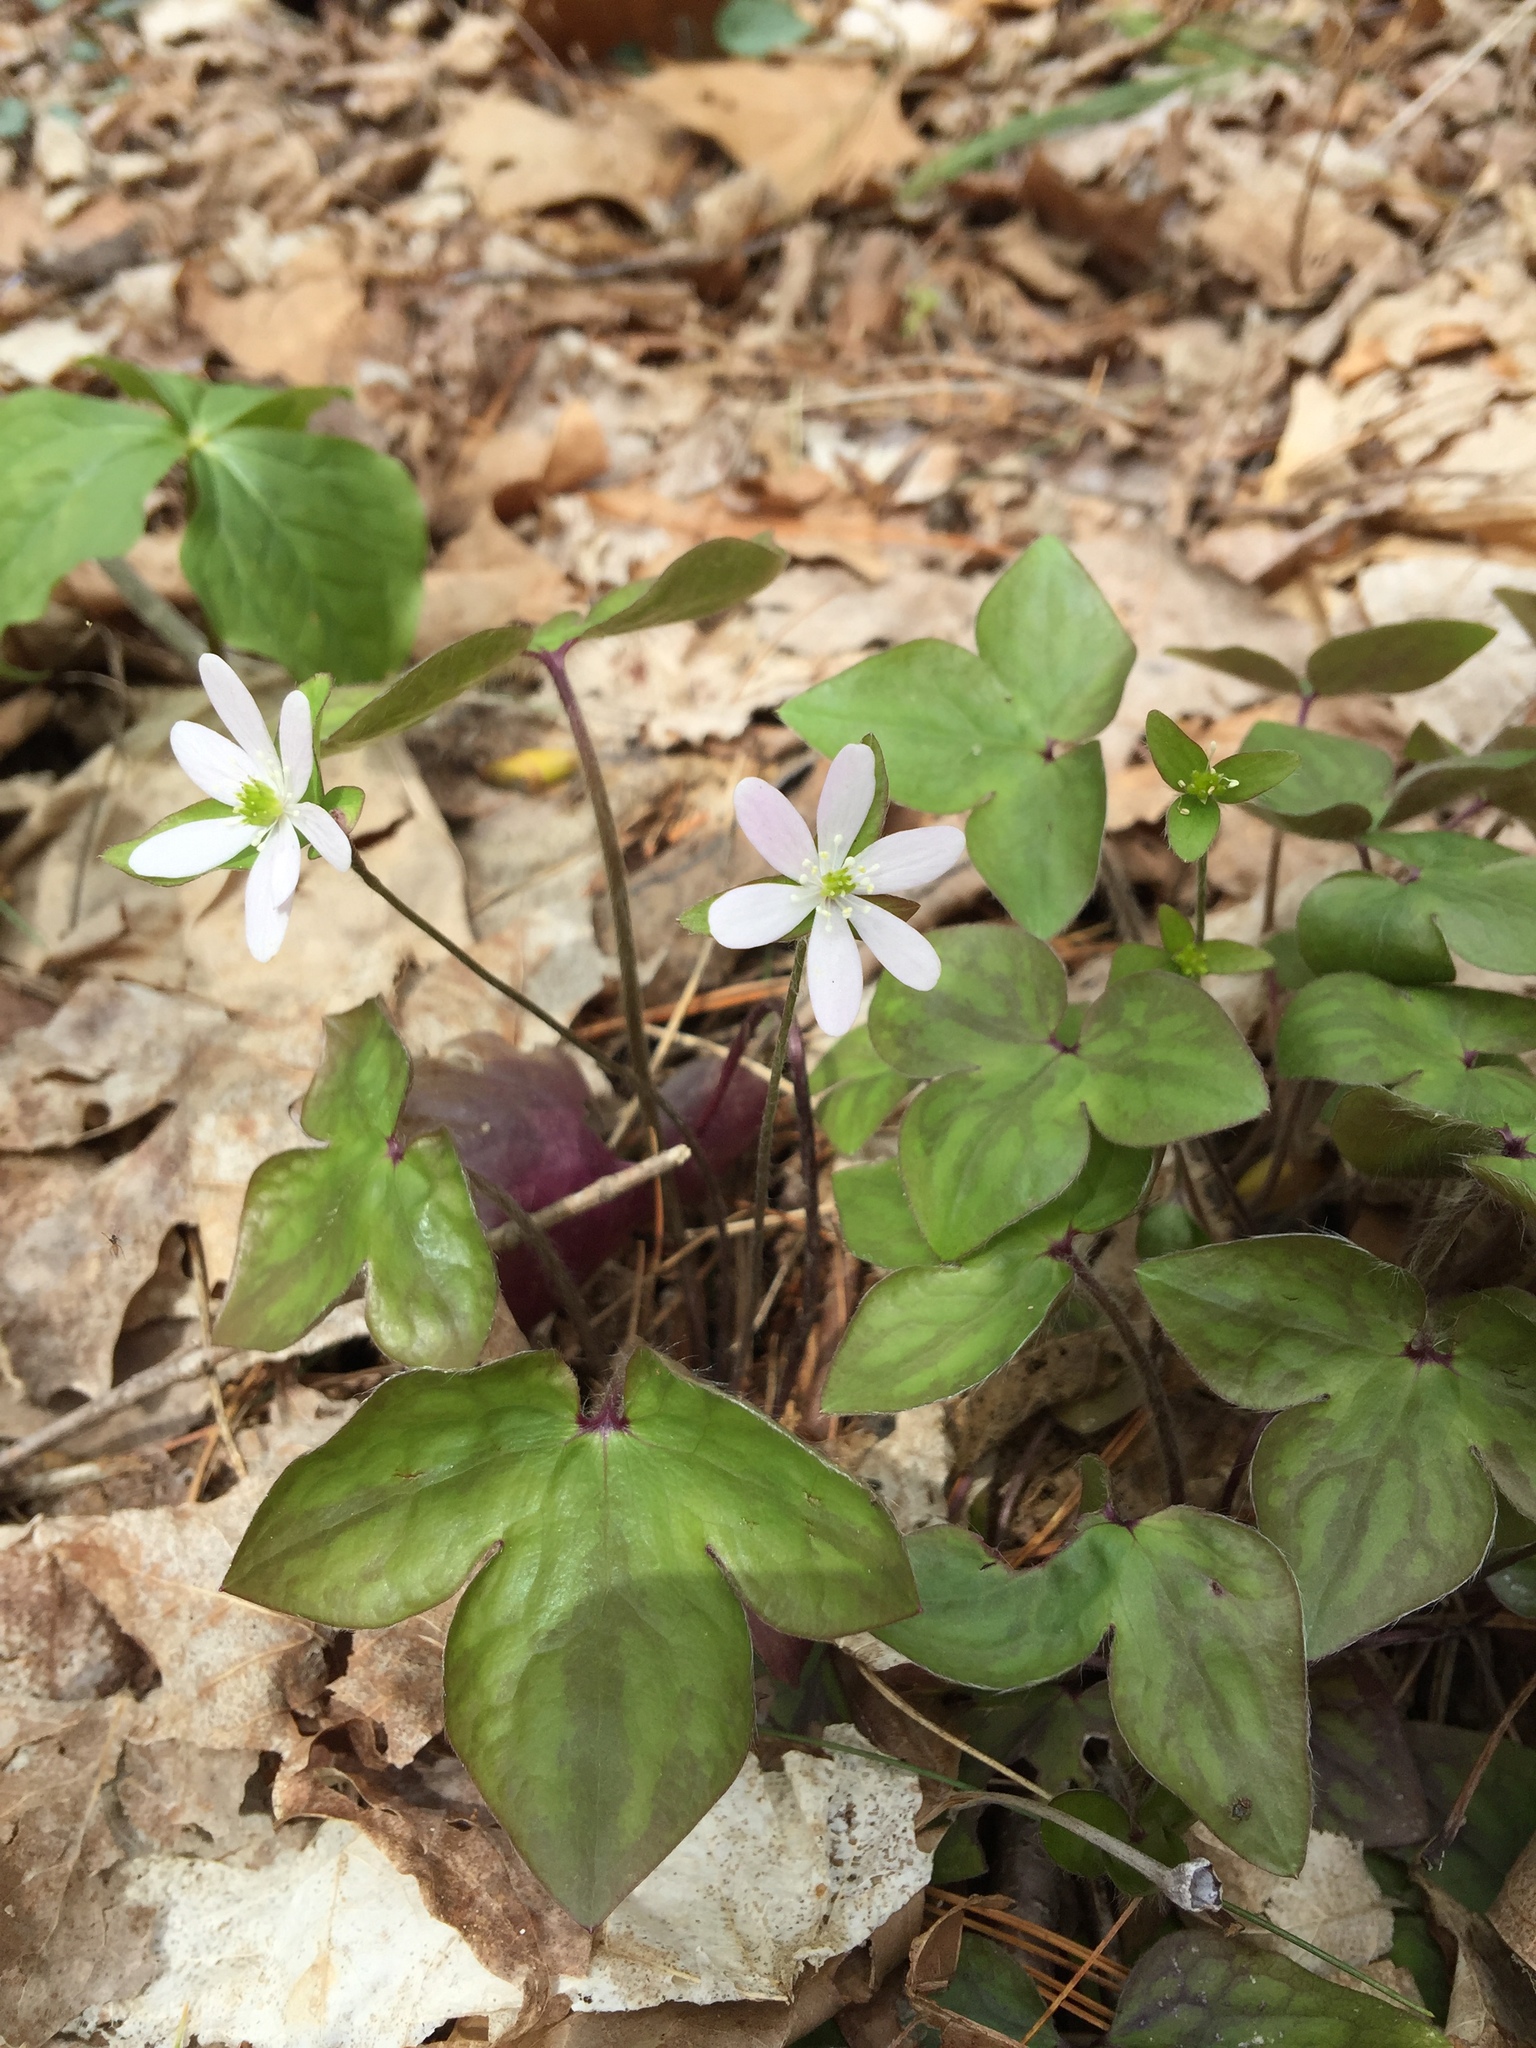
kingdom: Plantae
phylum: Tracheophyta
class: Magnoliopsida
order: Ranunculales
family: Ranunculaceae
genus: Hepatica
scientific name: Hepatica acutiloba
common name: Sharp-lobed hepatica
